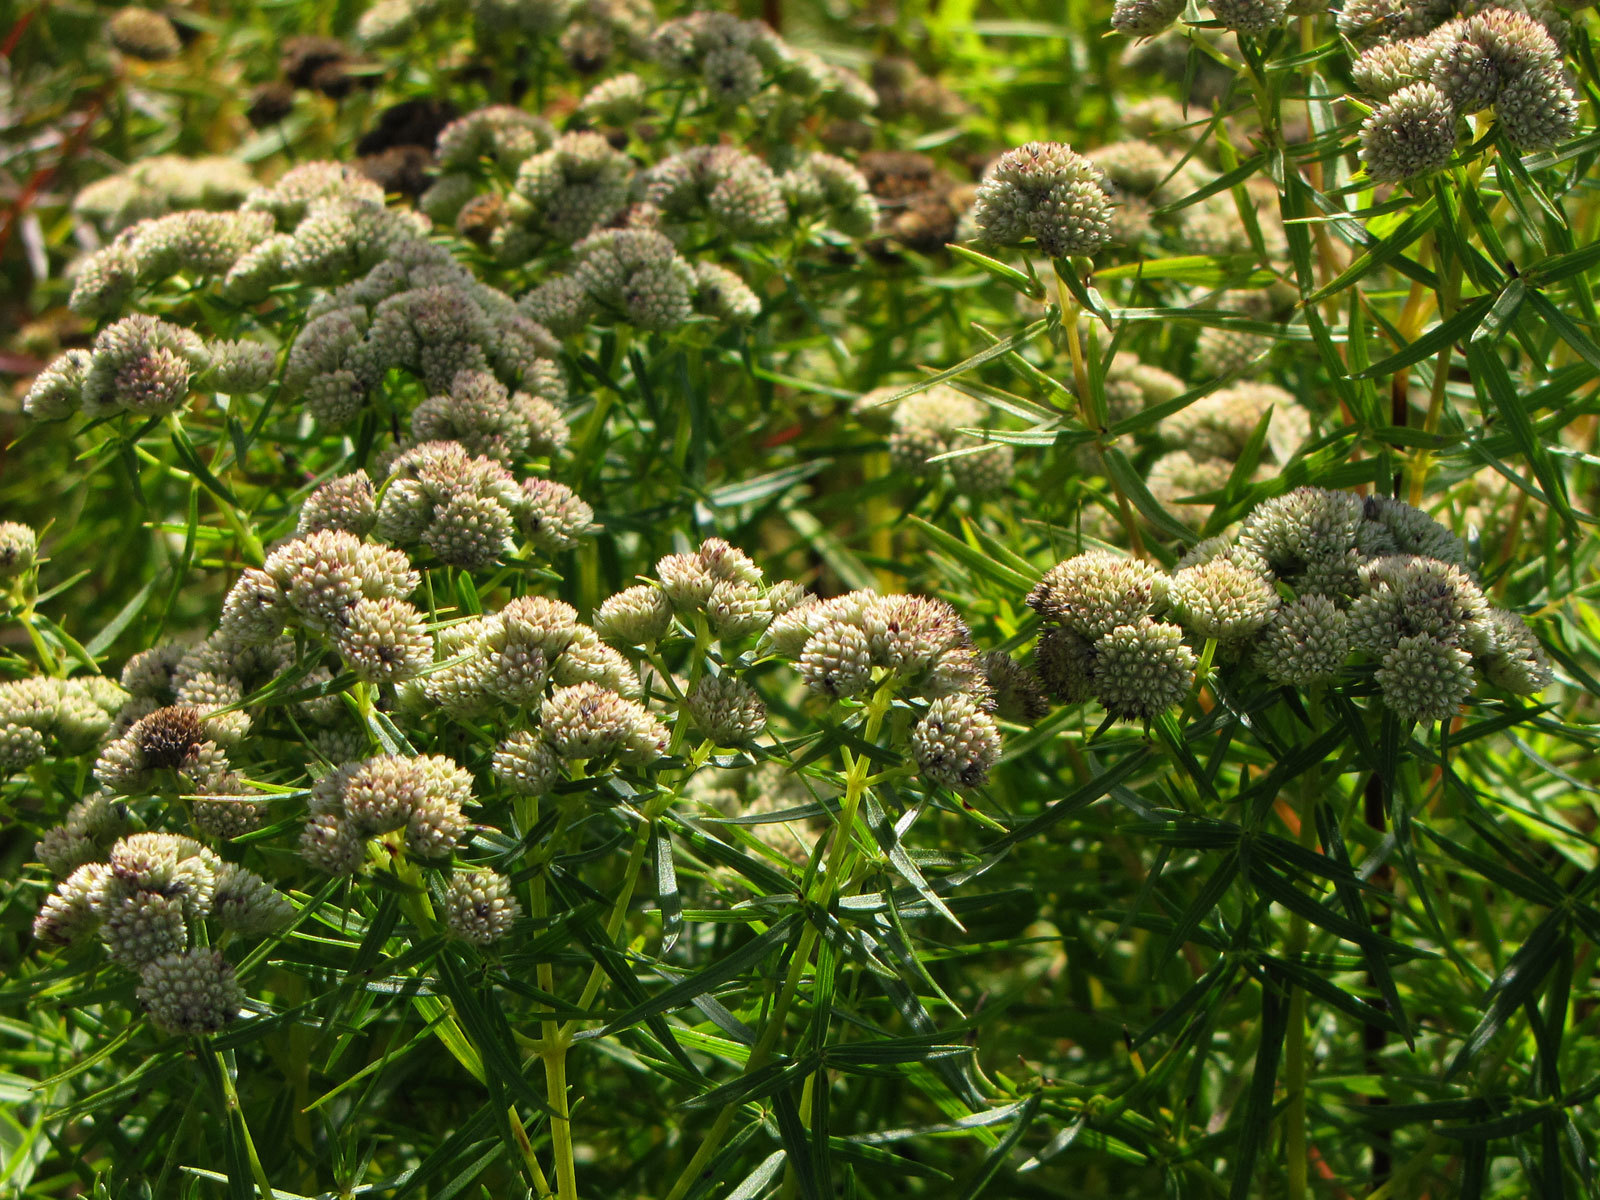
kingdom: Plantae
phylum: Tracheophyta
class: Magnoliopsida
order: Lamiales
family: Lamiaceae
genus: Pycnanthemum
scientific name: Pycnanthemum tenuifolium
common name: Narrow-leaf mountain-mint
